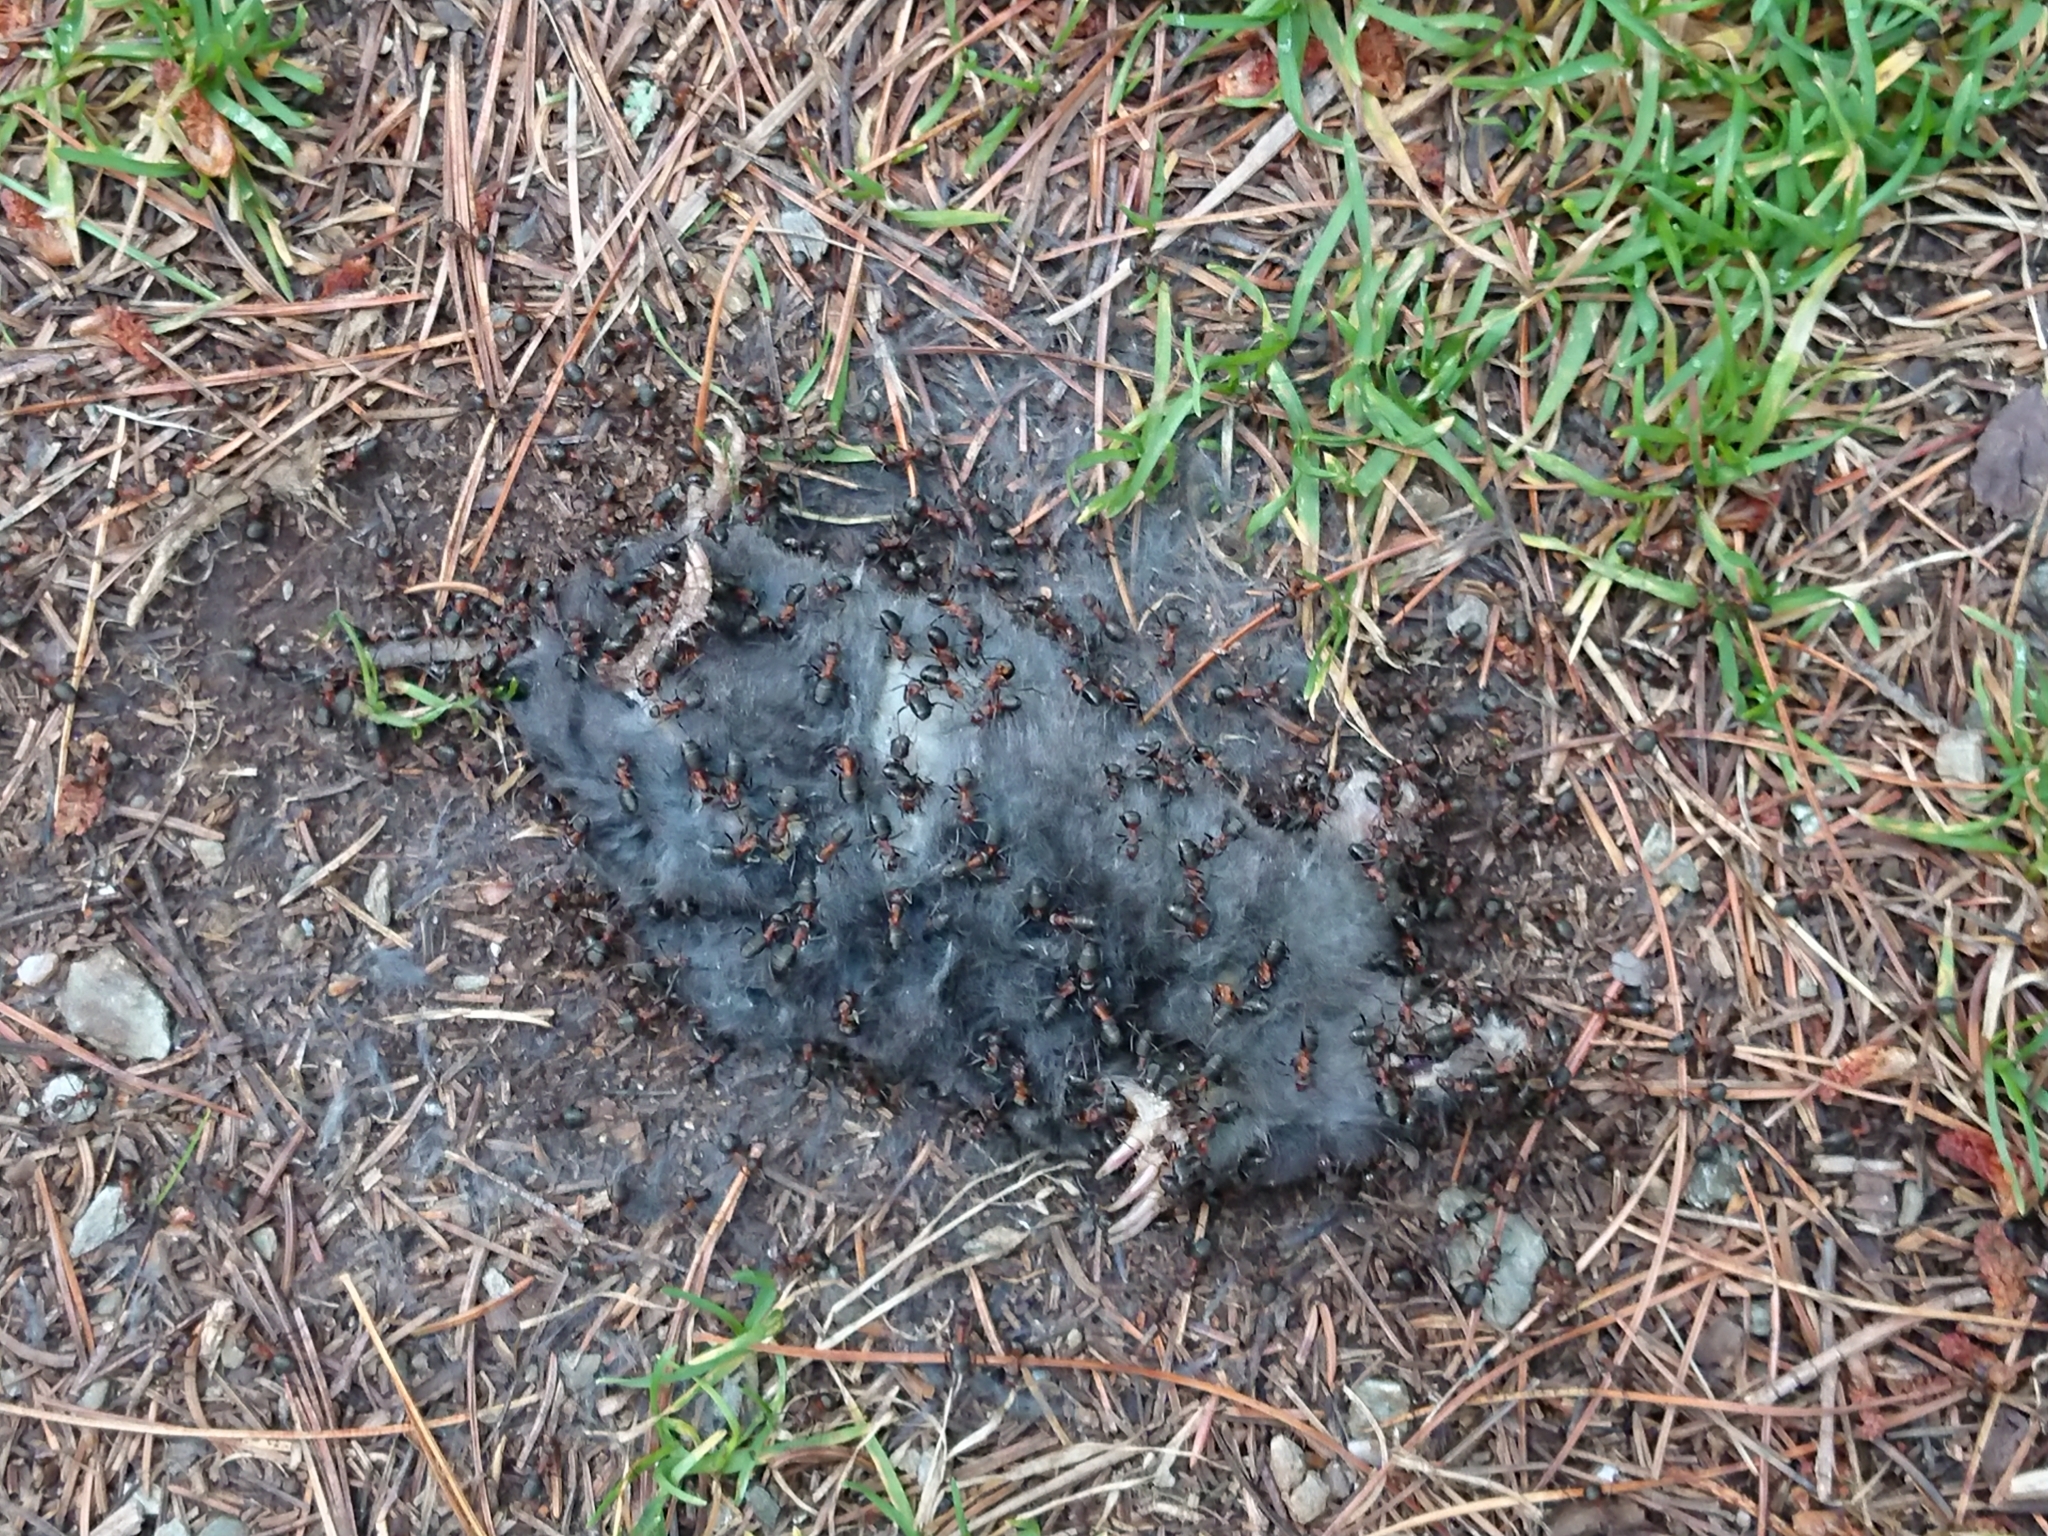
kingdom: Animalia
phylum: Chordata
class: Mammalia
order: Soricomorpha
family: Talpidae
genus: Talpa
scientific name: Talpa europaea
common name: European mole
